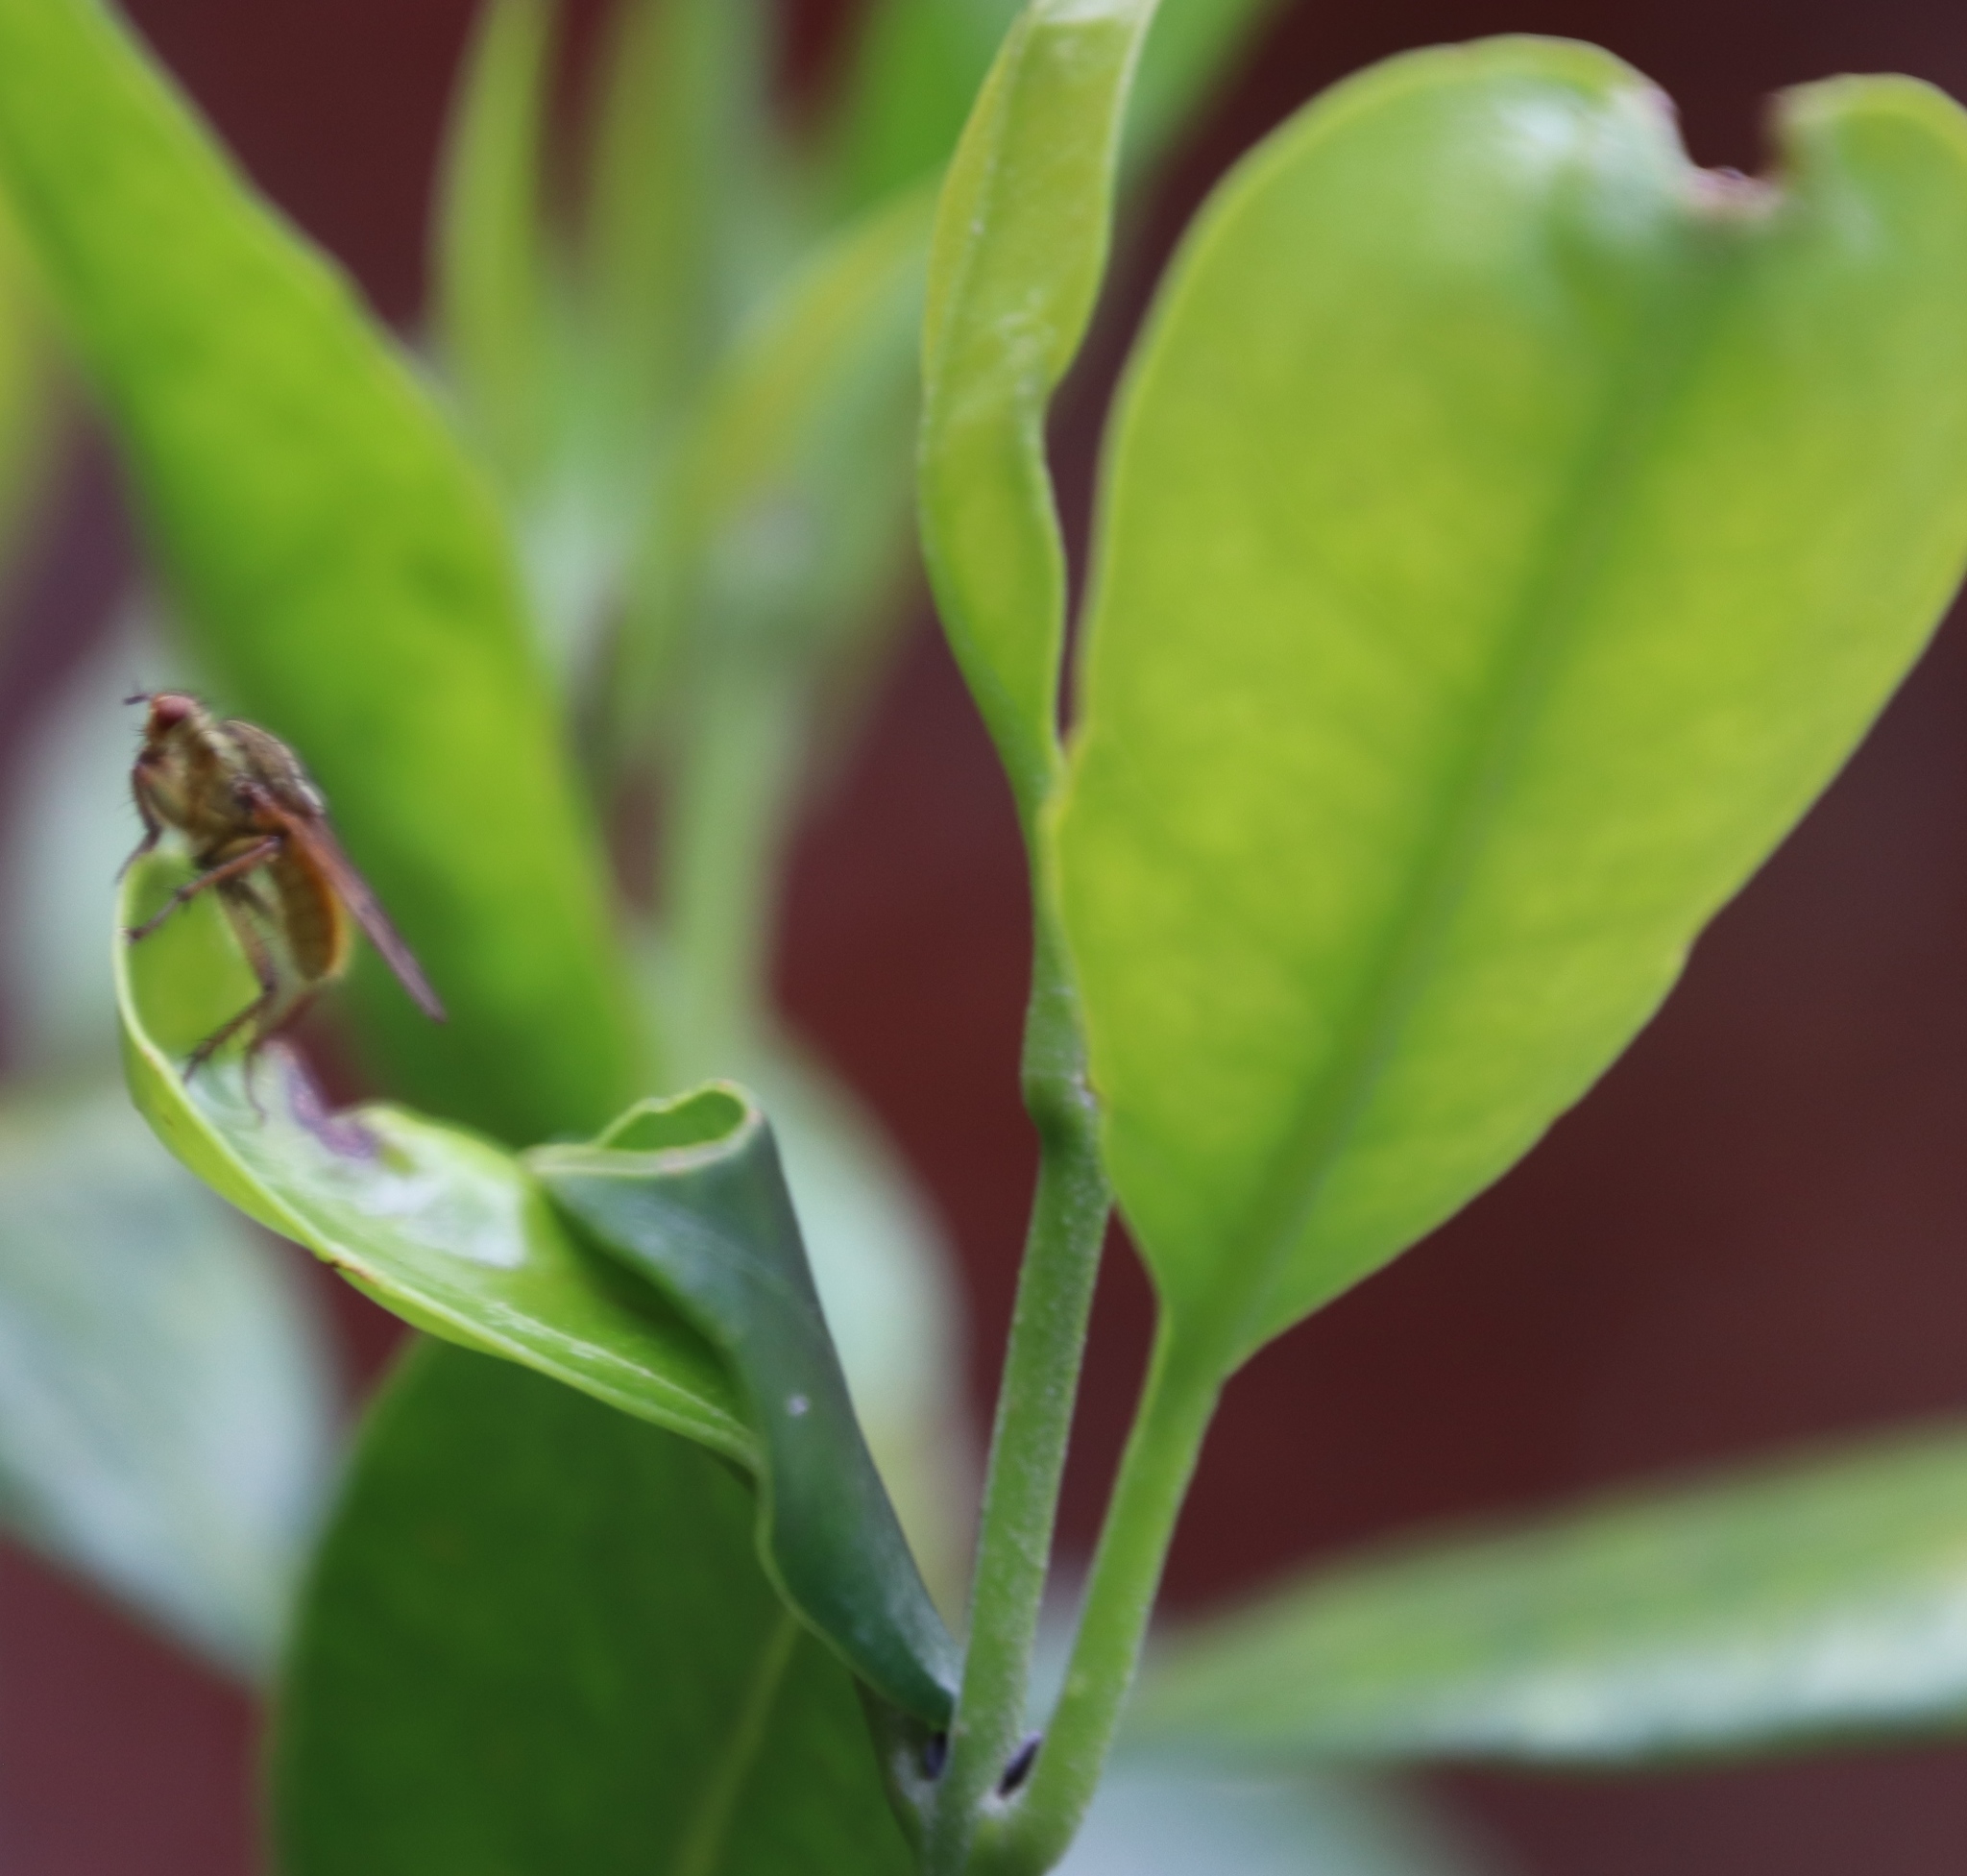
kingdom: Plantae
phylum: Tracheophyta
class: Magnoliopsida
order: Lamiales
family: Oleaceae
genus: Olea
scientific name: Olea capensis
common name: Black ironwood
